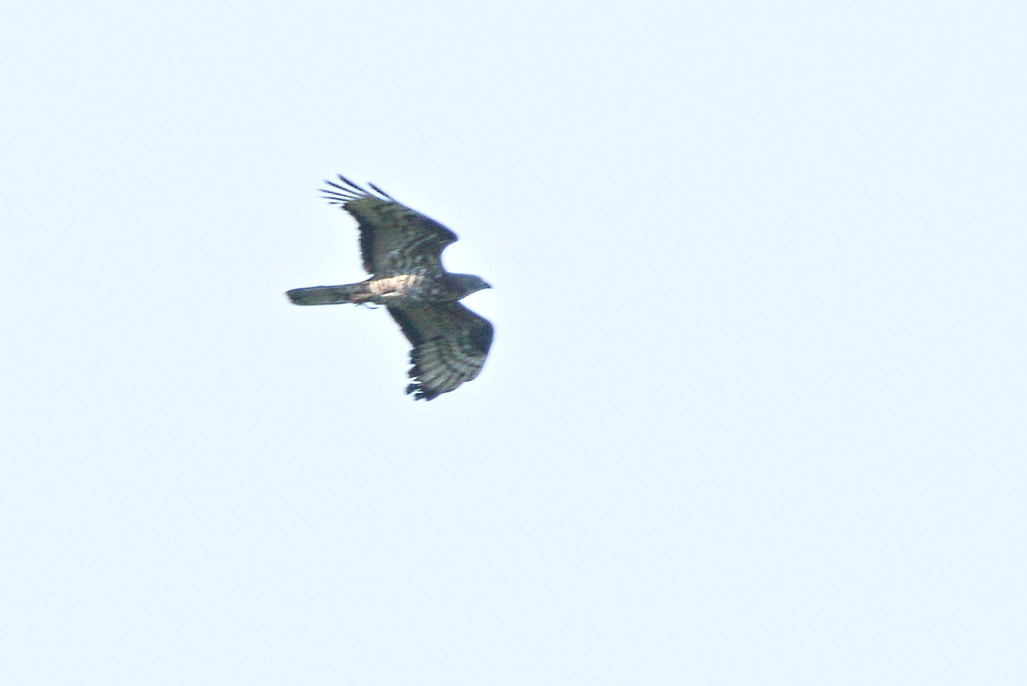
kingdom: Animalia
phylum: Chordata
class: Aves
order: Accipitriformes
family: Accipitridae
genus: Pernis
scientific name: Pernis apivorus
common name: European honey buzzard
